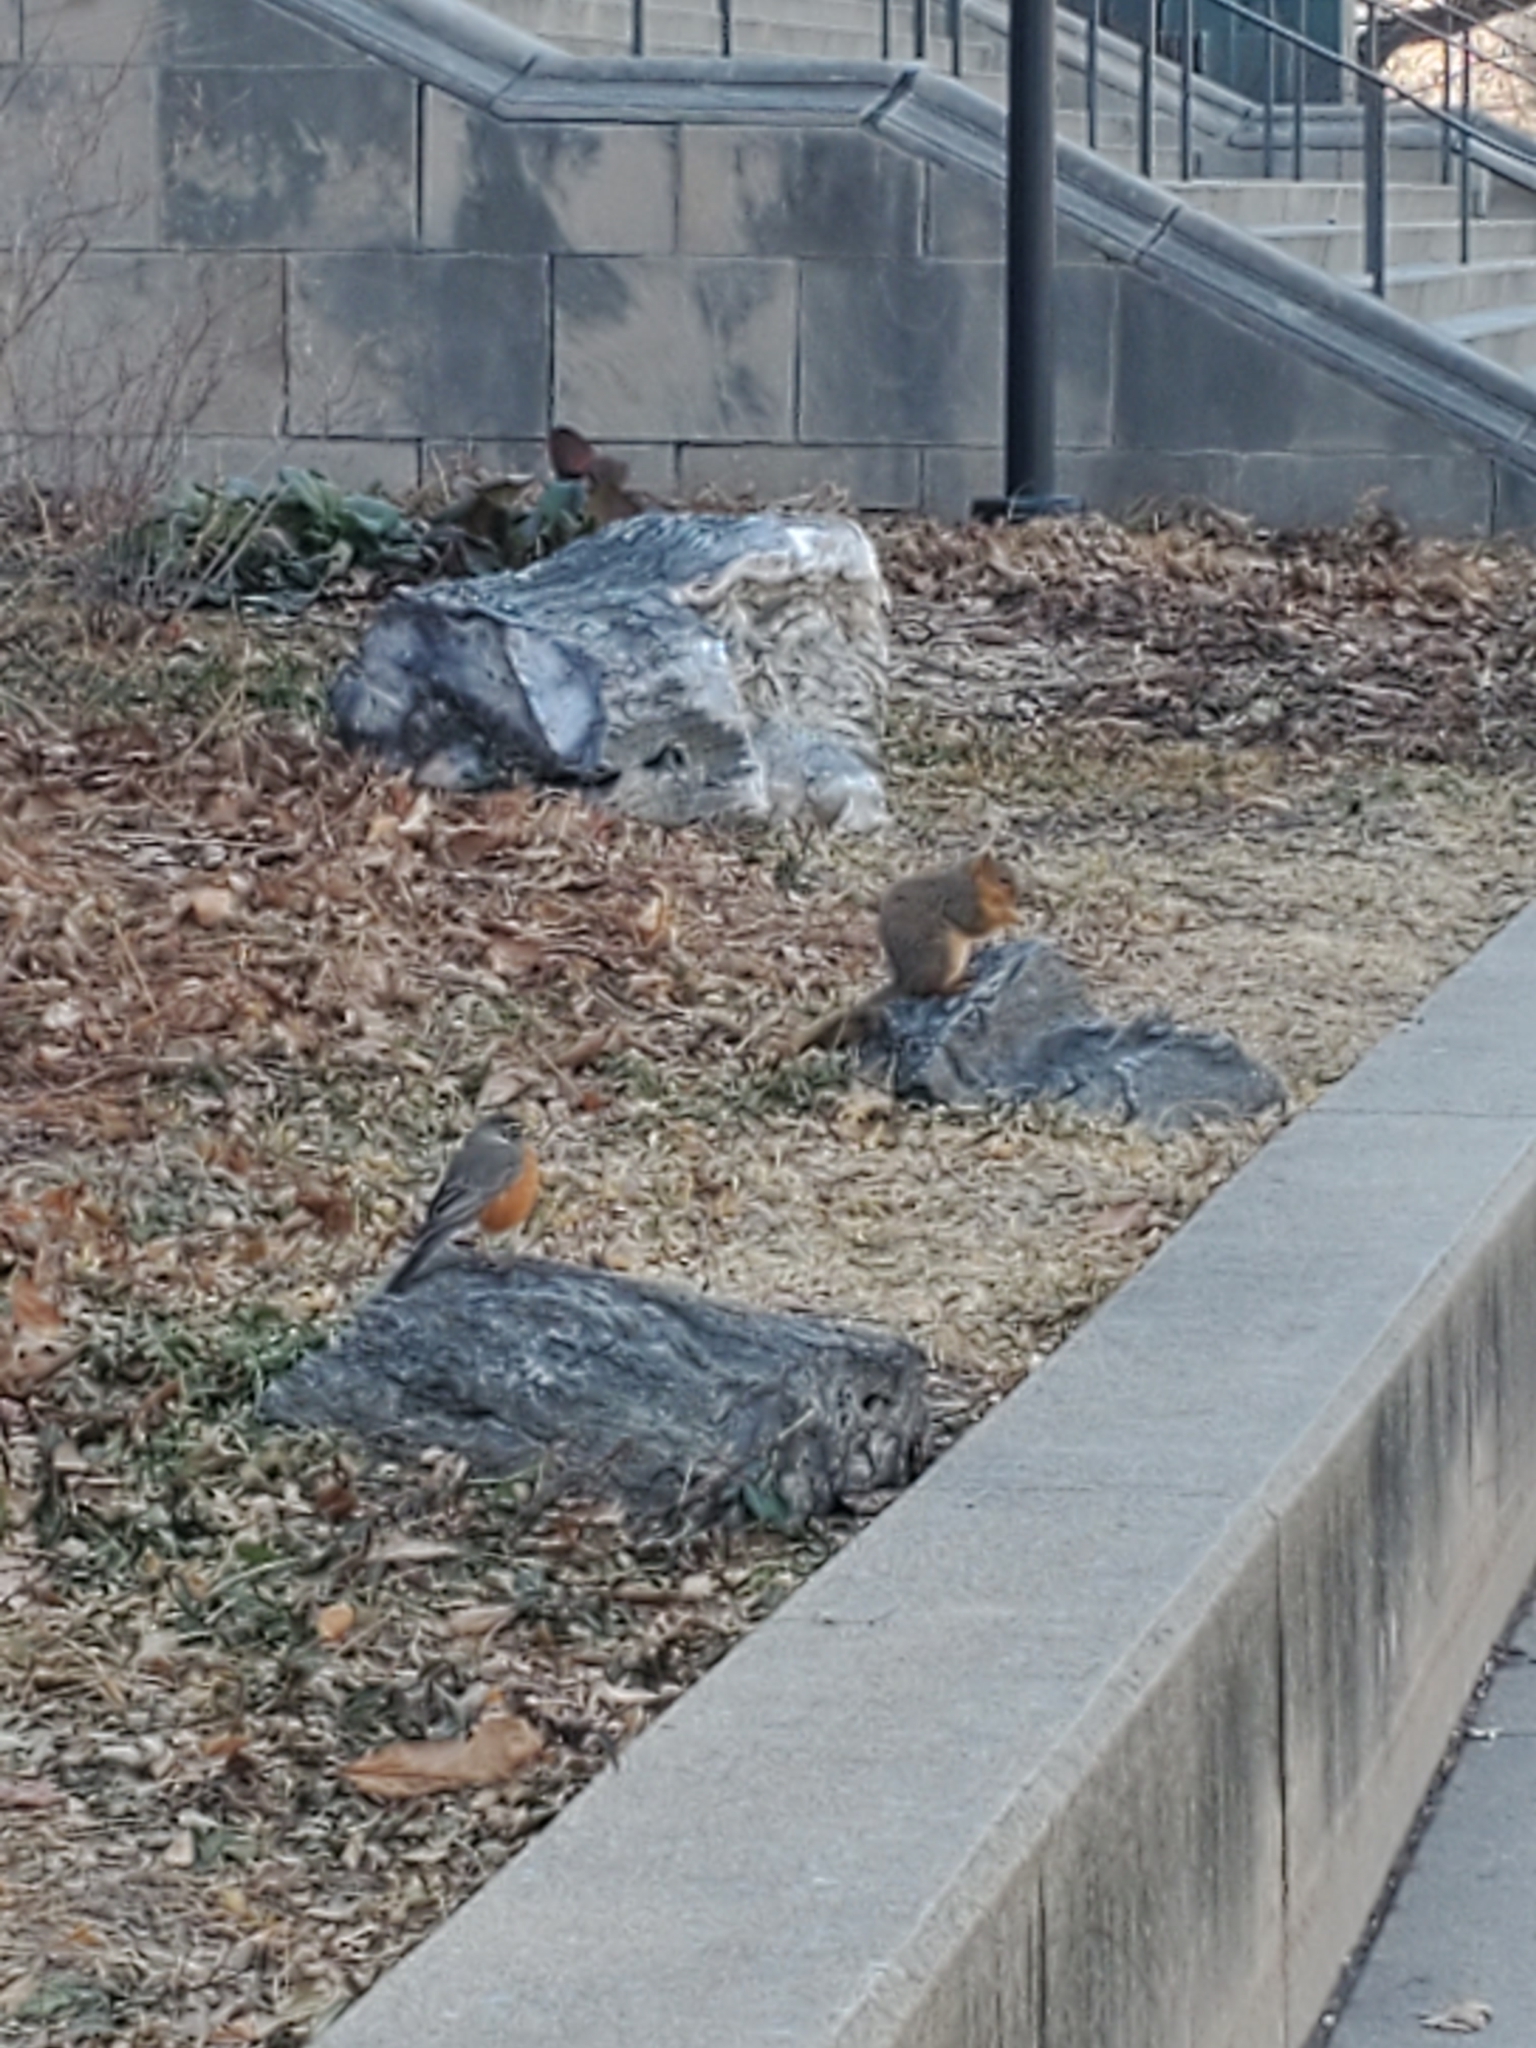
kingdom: Animalia
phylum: Chordata
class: Mammalia
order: Rodentia
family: Sciuridae
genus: Sciurus
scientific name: Sciurus niger
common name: Fox squirrel
